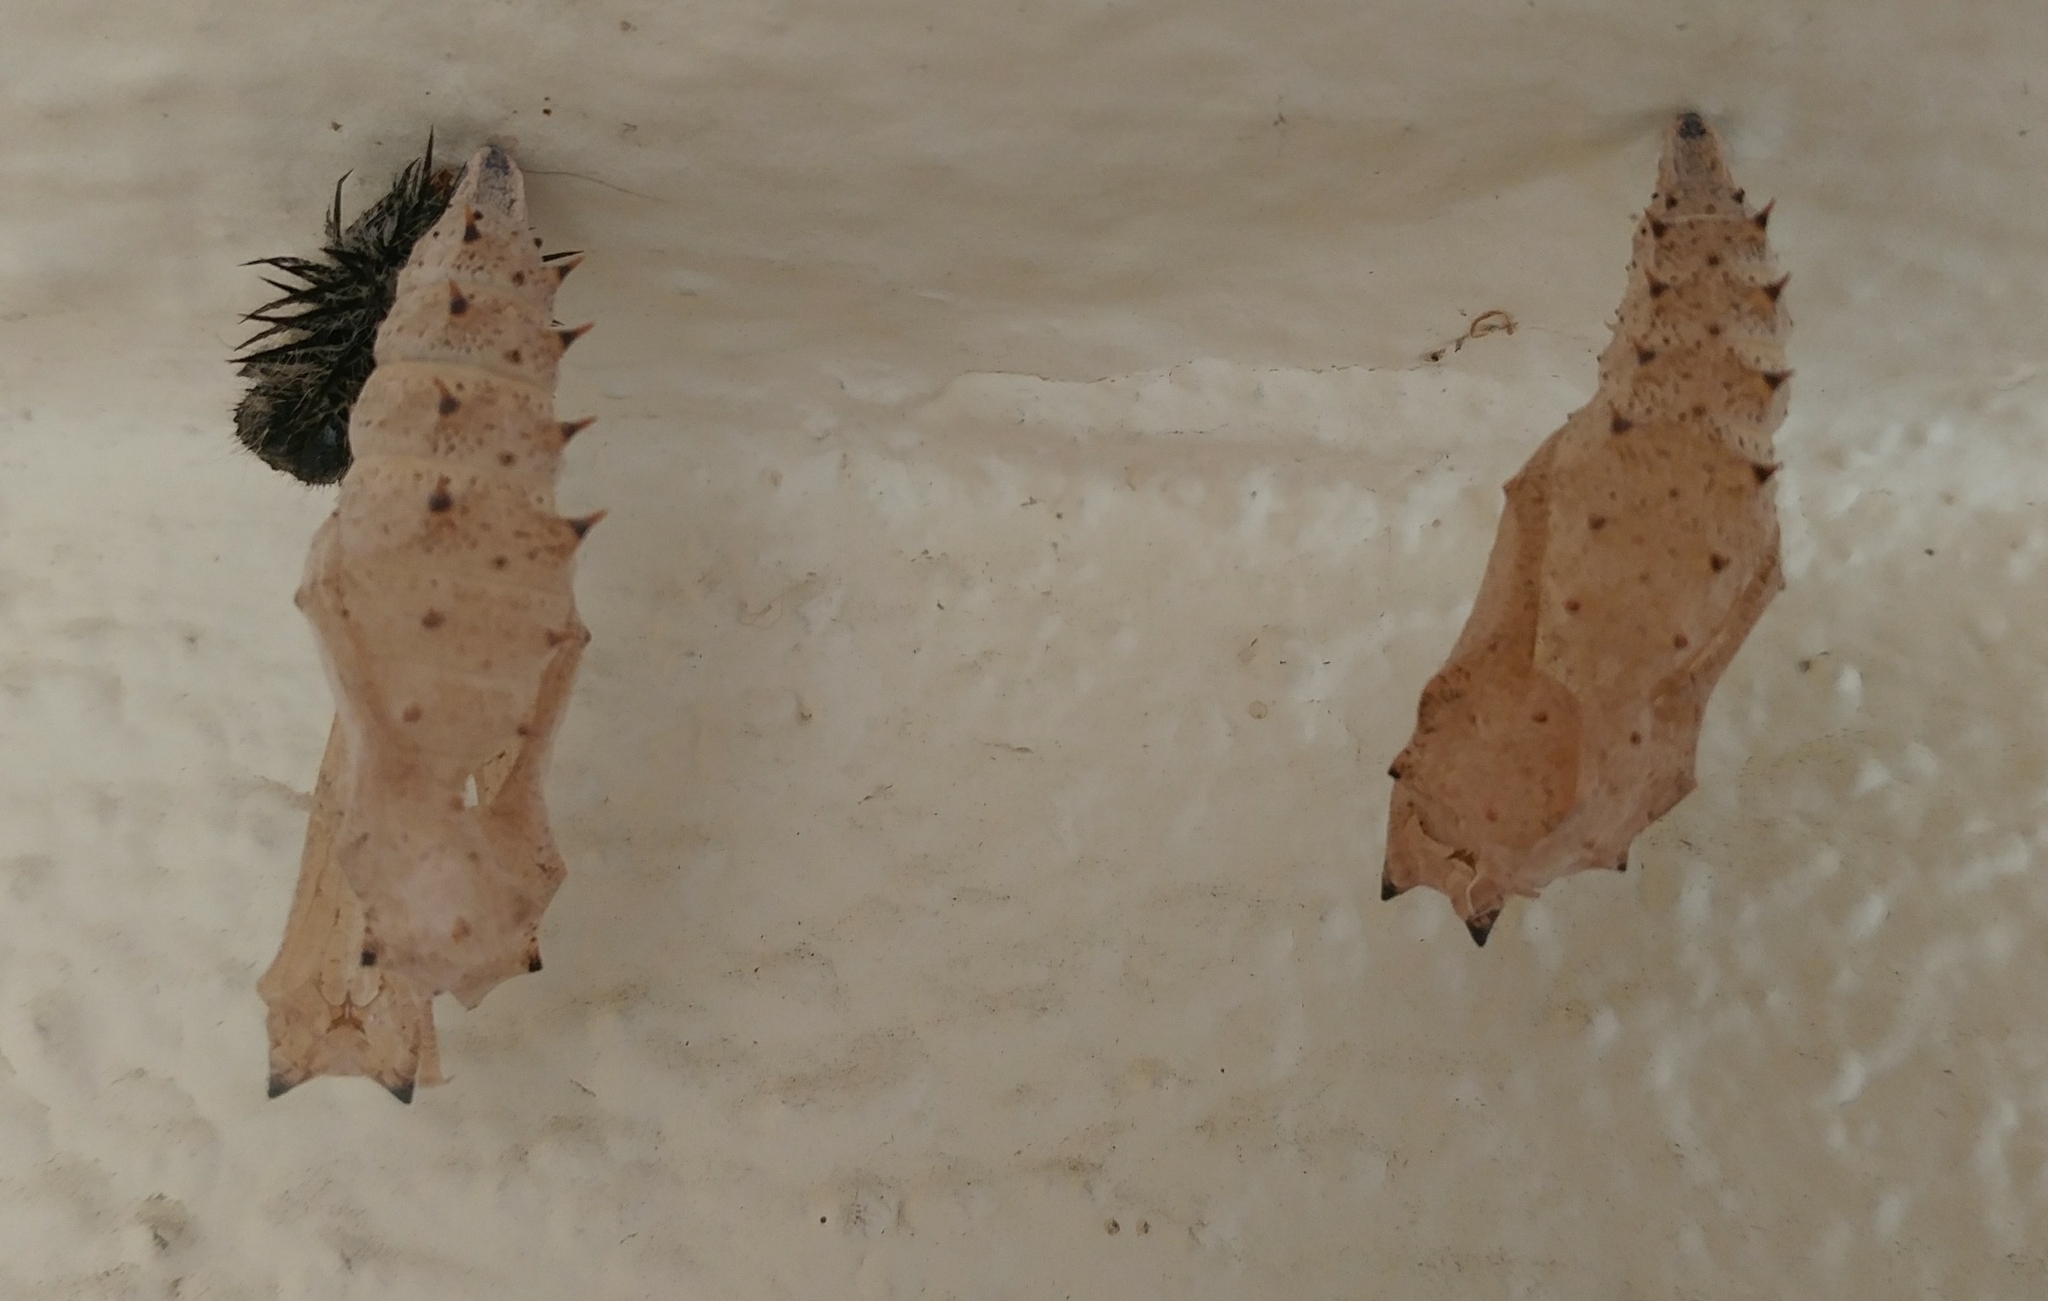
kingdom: Animalia
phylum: Arthropoda
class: Insecta
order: Lepidoptera
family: Nymphalidae
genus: Nymphalis
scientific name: Nymphalis antiopa
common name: Camberwell beauty
